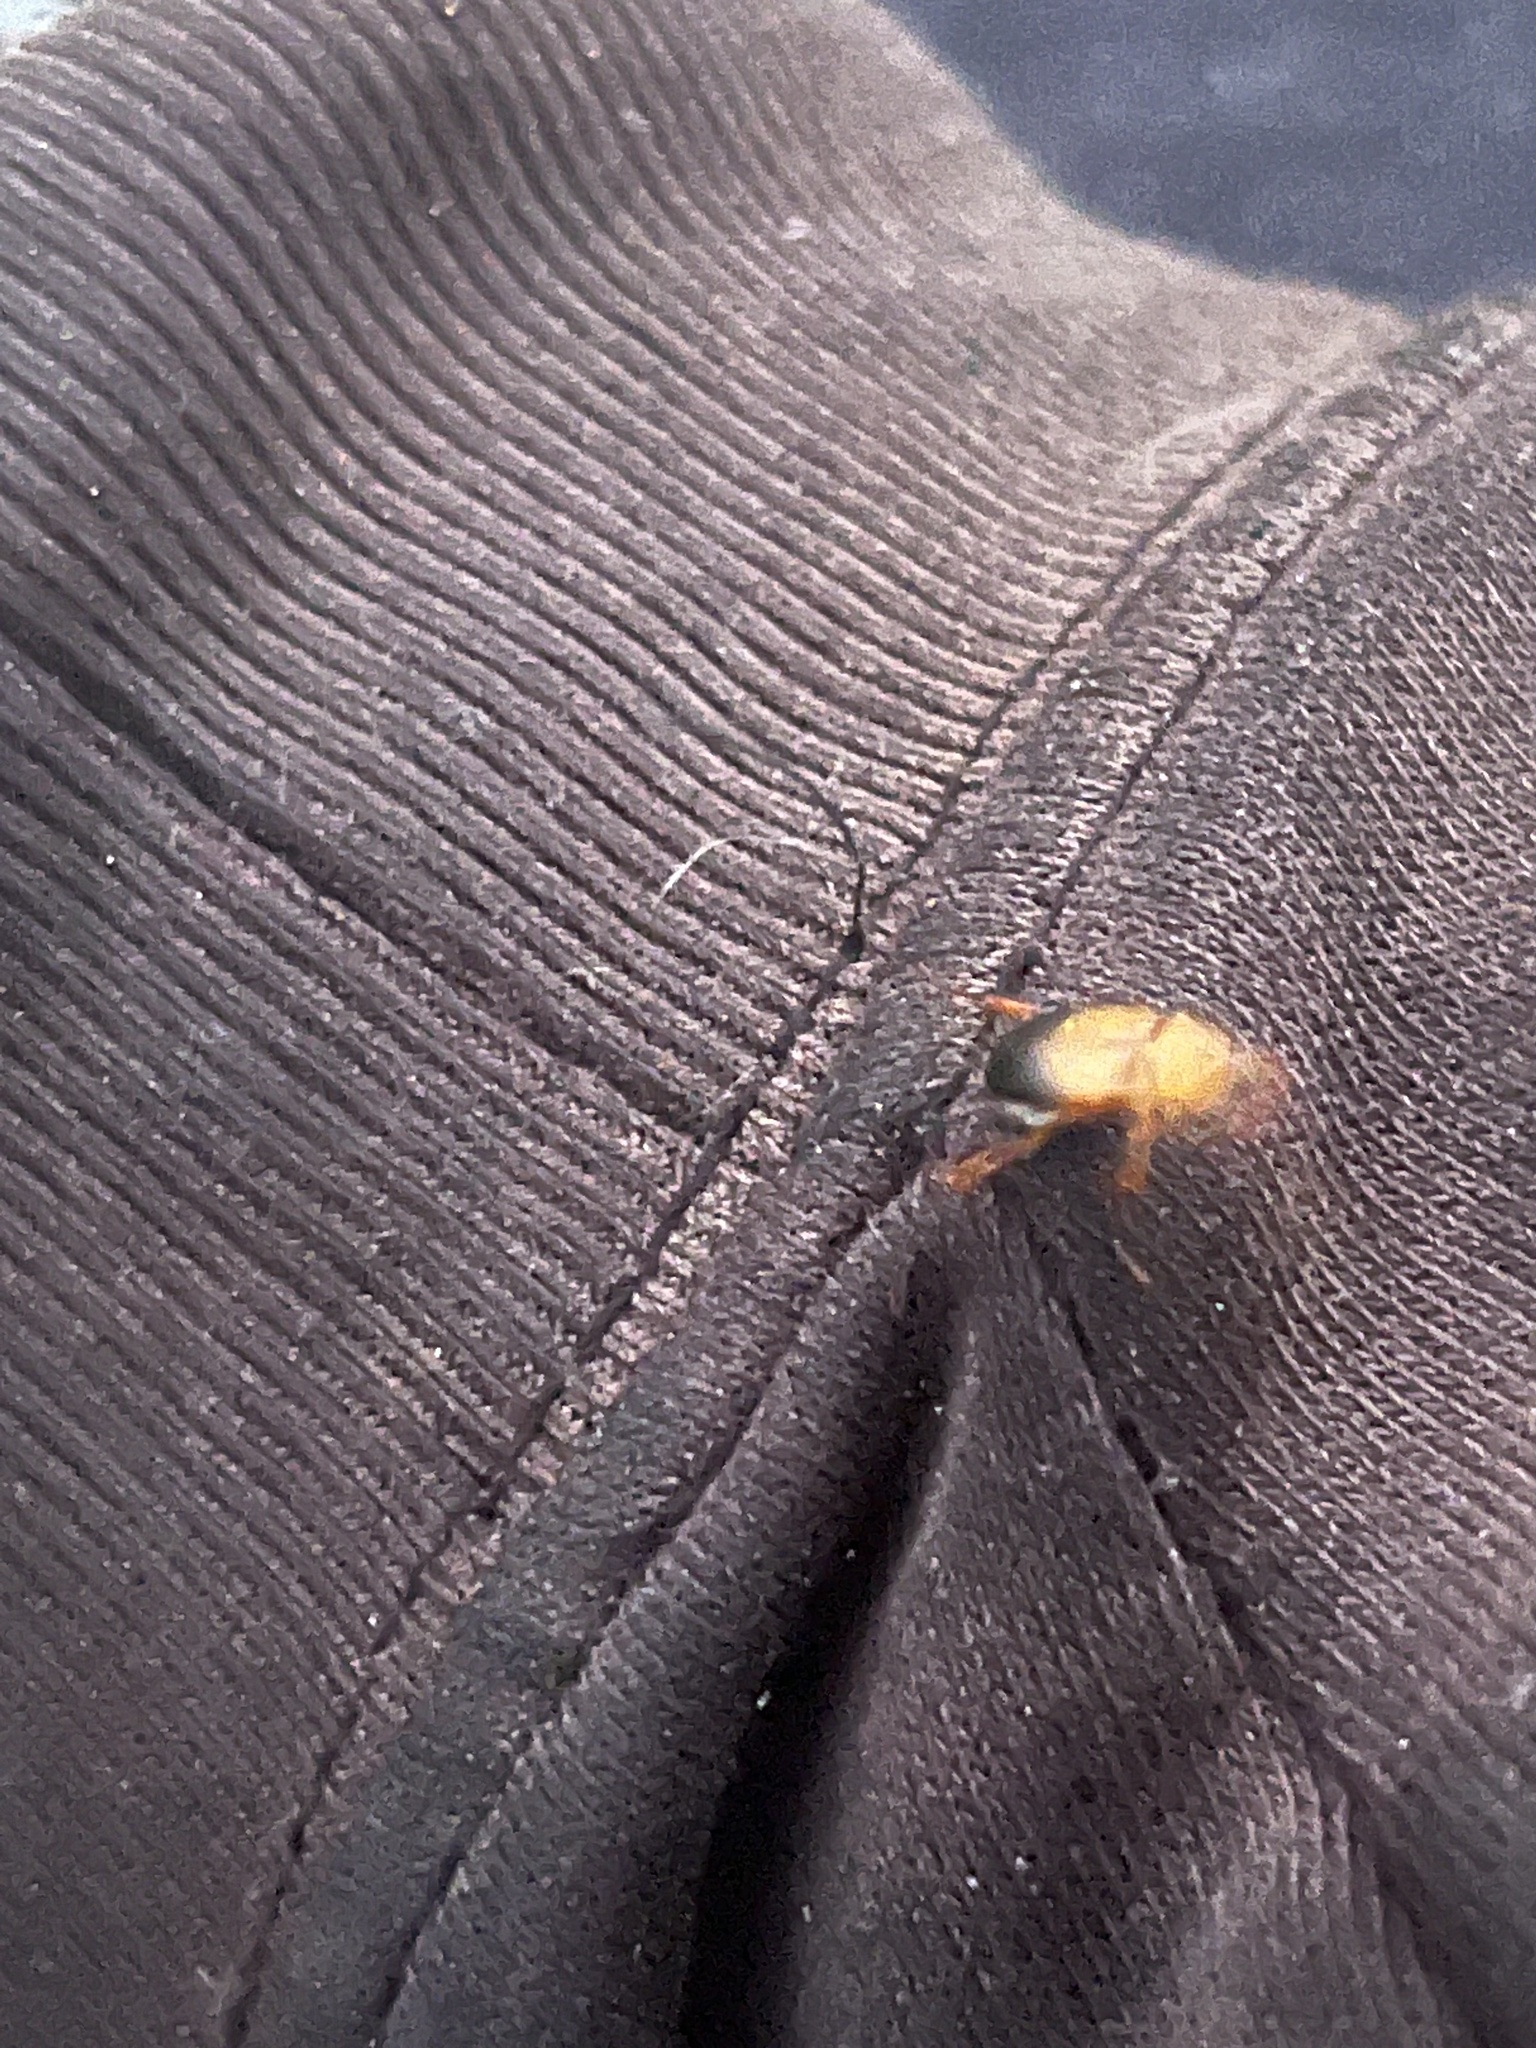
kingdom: Animalia
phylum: Arthropoda
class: Insecta
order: Coleoptera
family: Scarabaeidae
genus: Phyllotocus
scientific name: Phyllotocus macleayi
